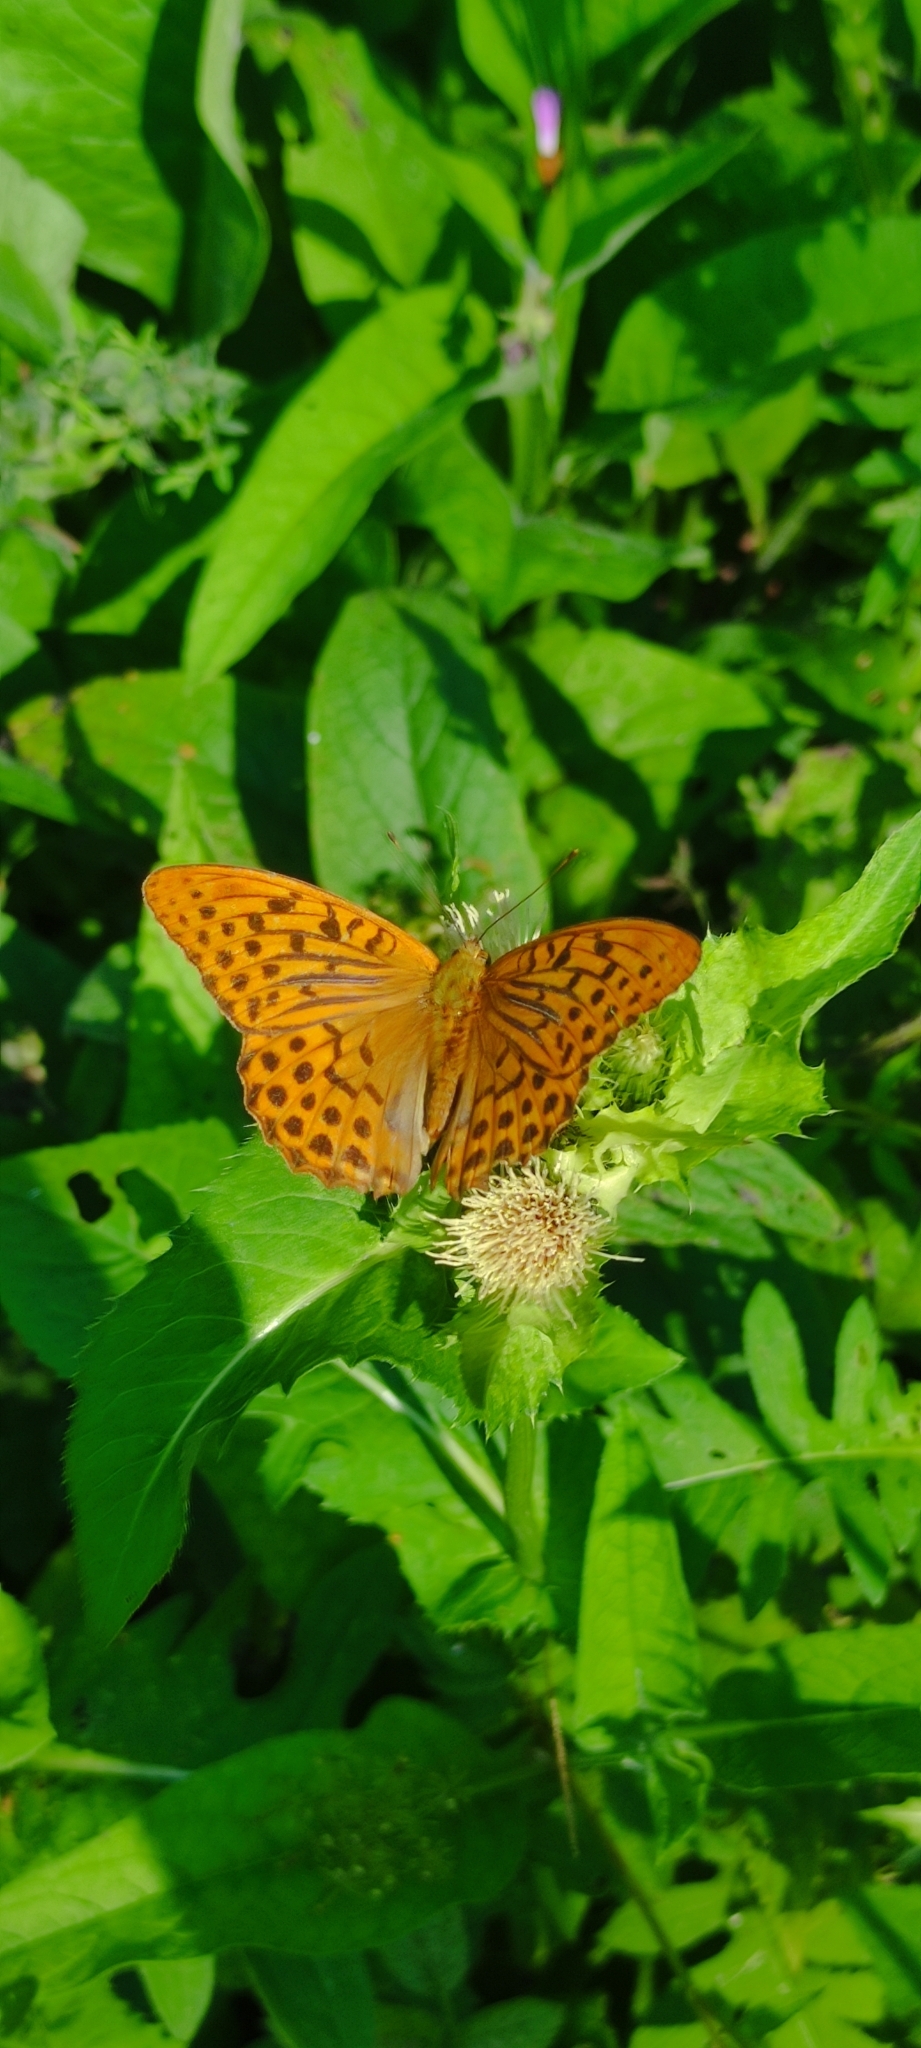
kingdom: Animalia
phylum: Arthropoda
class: Insecta
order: Lepidoptera
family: Nymphalidae
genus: Argynnis
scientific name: Argynnis paphia
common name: Silver-washed fritillary
